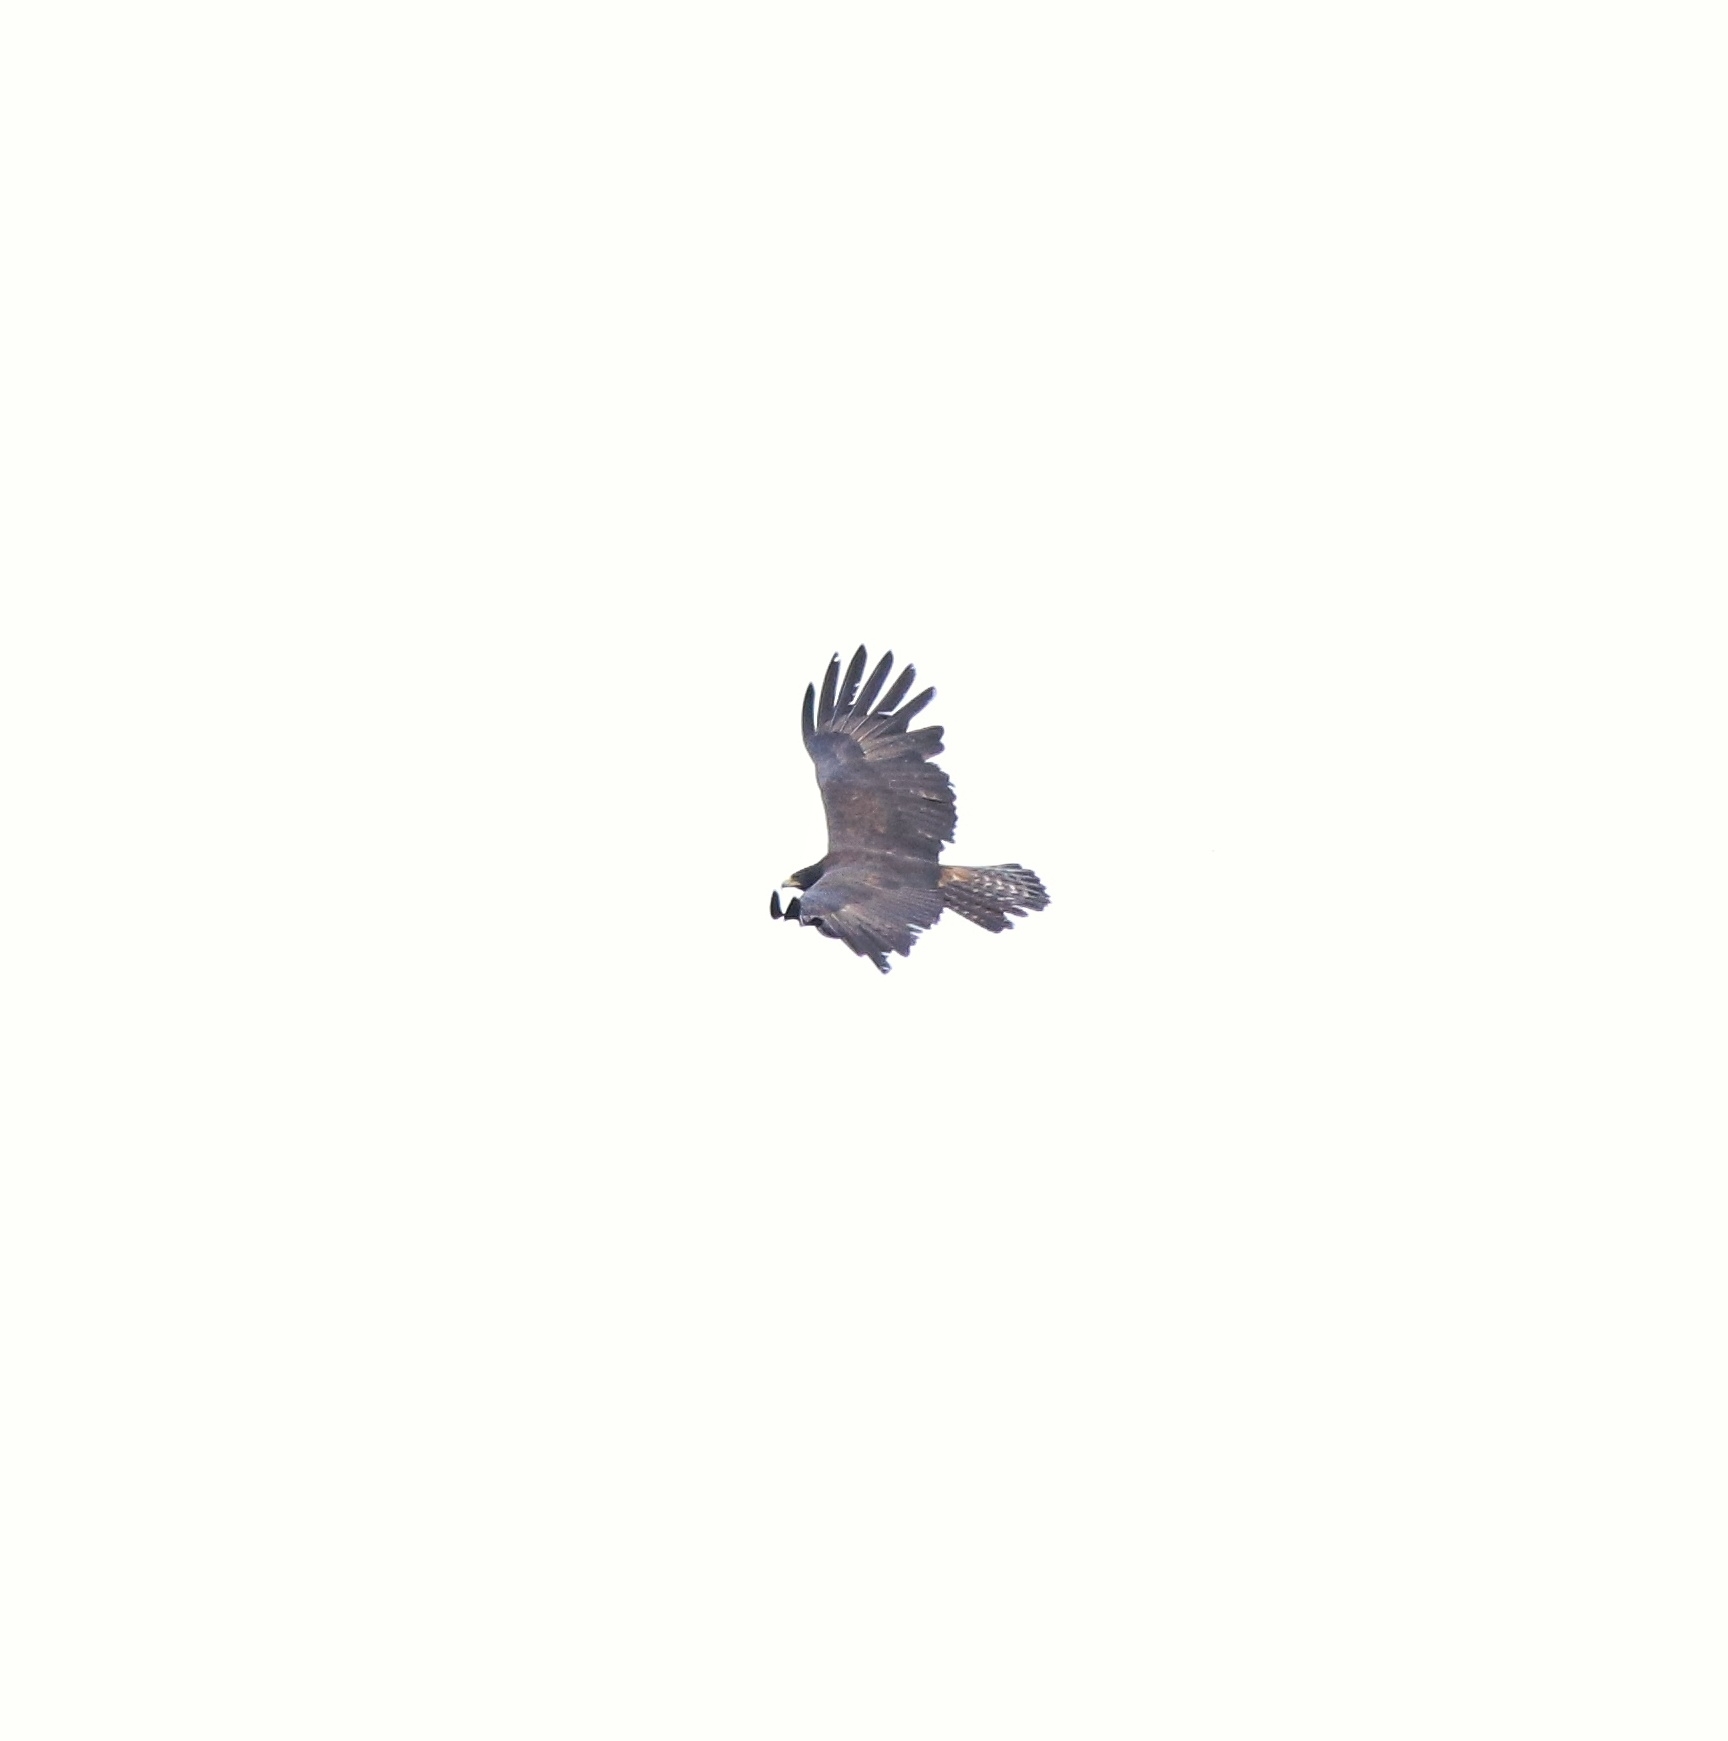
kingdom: Animalia
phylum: Chordata
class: Aves
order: Accipitriformes
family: Accipitridae
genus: Ictinaetus
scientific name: Ictinaetus malayensis
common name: Black eagle
